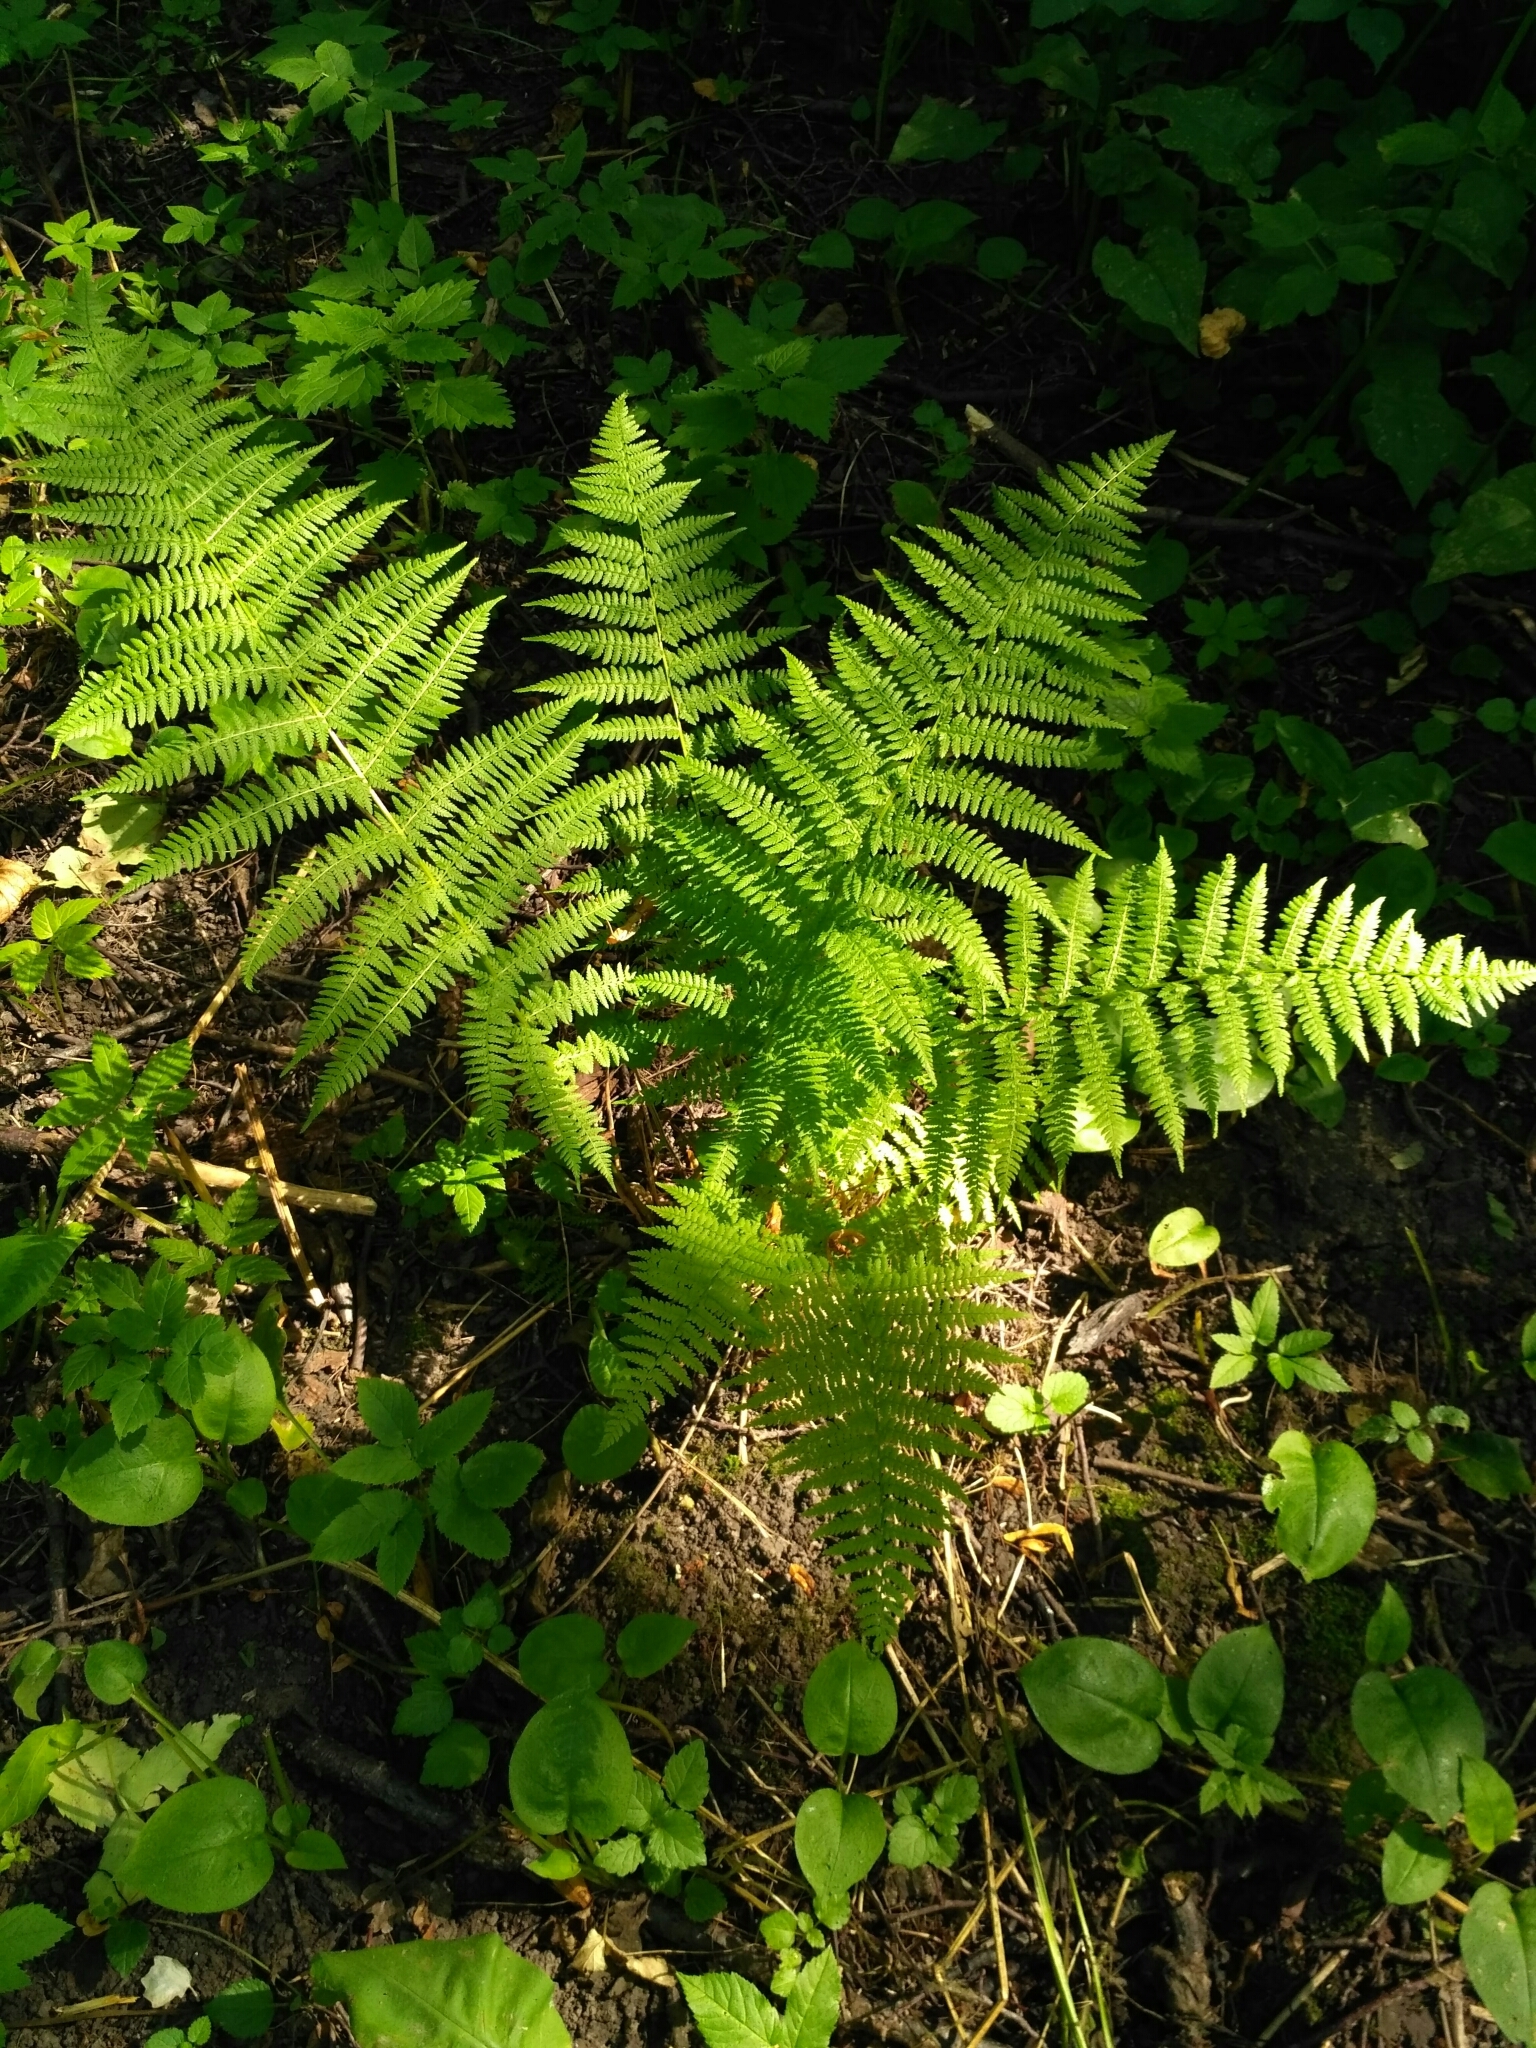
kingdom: Plantae
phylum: Tracheophyta
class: Polypodiopsida
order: Polypodiales
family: Athyriaceae
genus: Athyrium
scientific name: Athyrium filix-femina
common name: Lady fern
